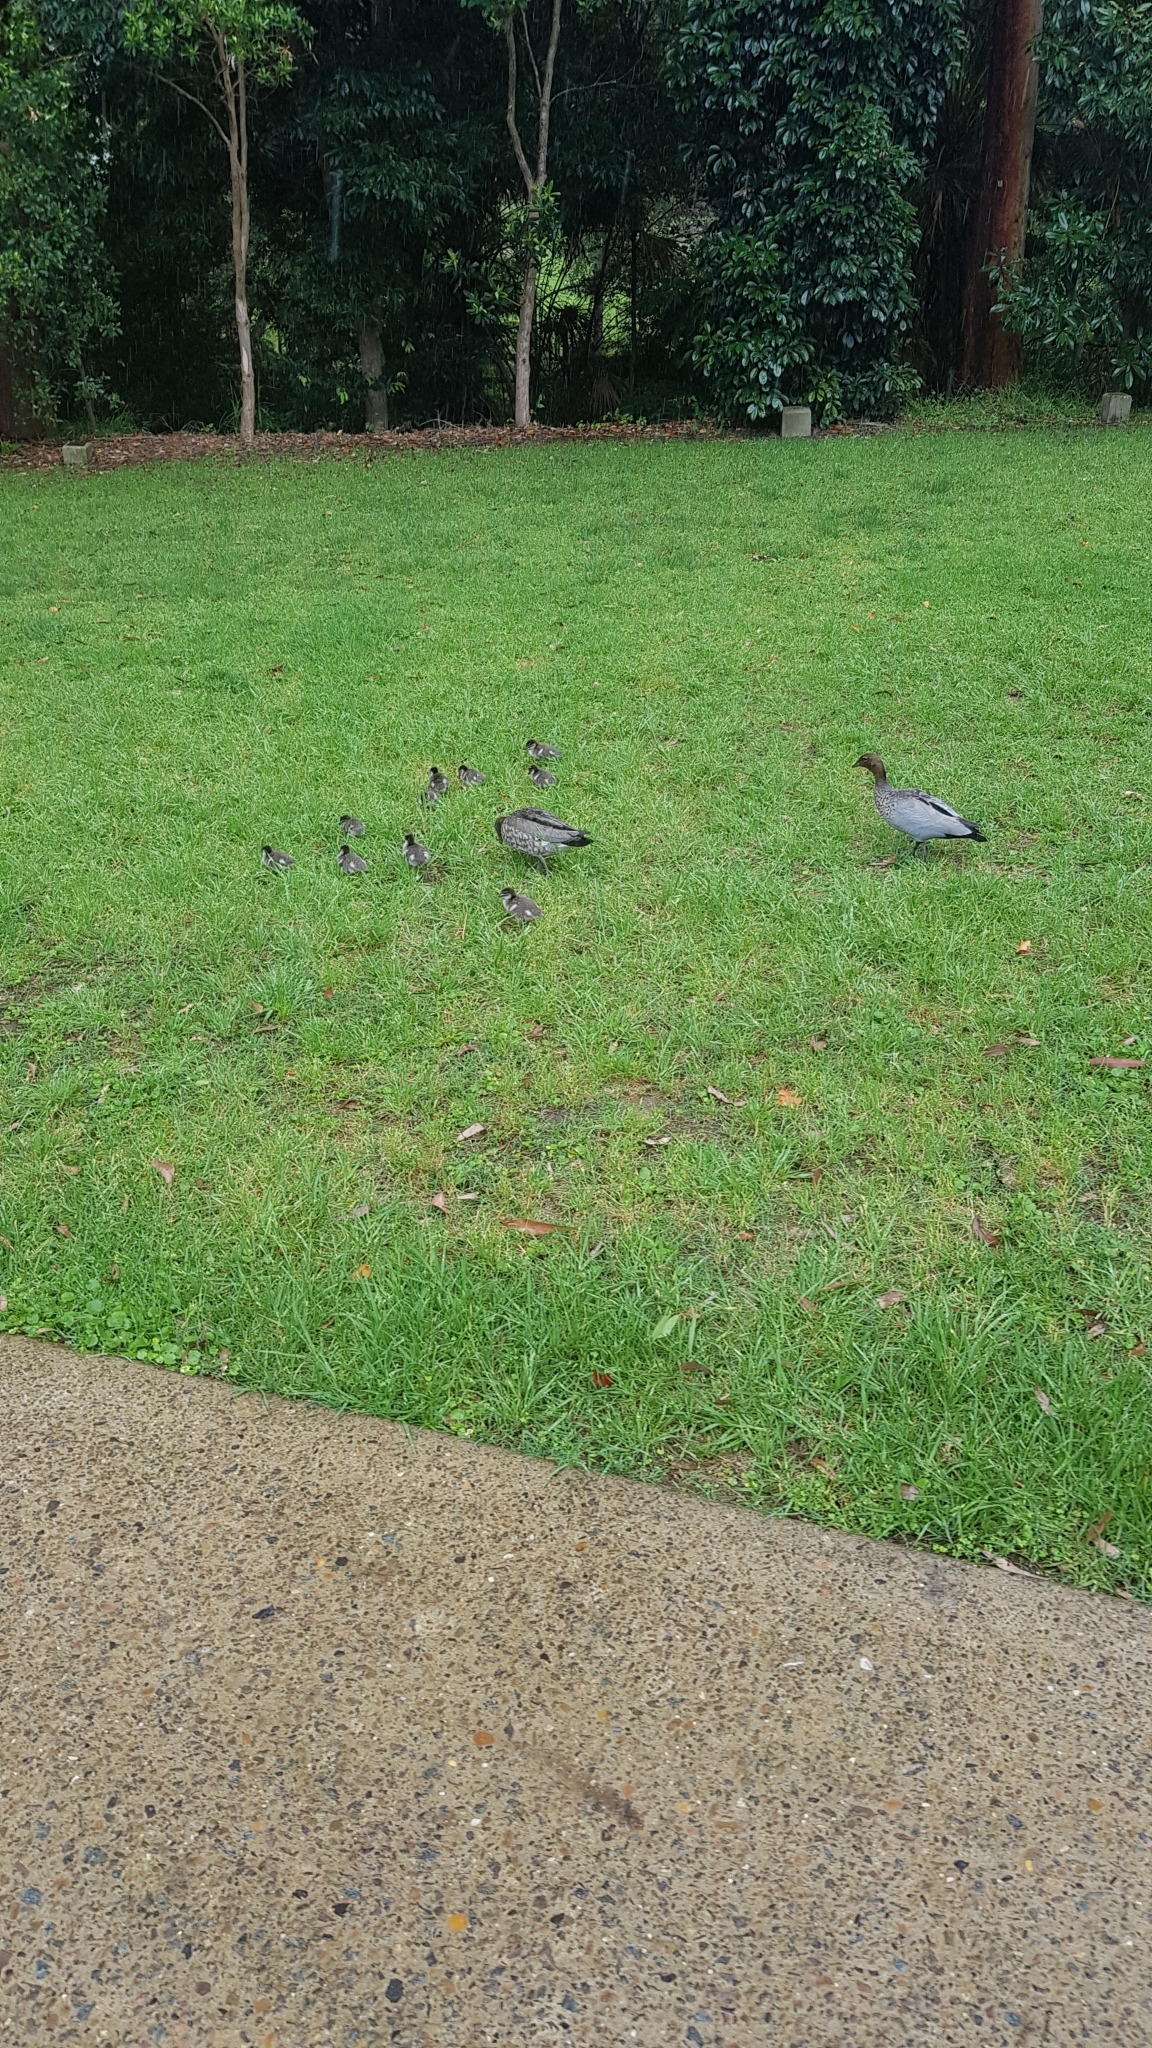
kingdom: Animalia
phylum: Chordata
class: Aves
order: Anseriformes
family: Anatidae
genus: Chenonetta
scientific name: Chenonetta jubata
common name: Maned duck
